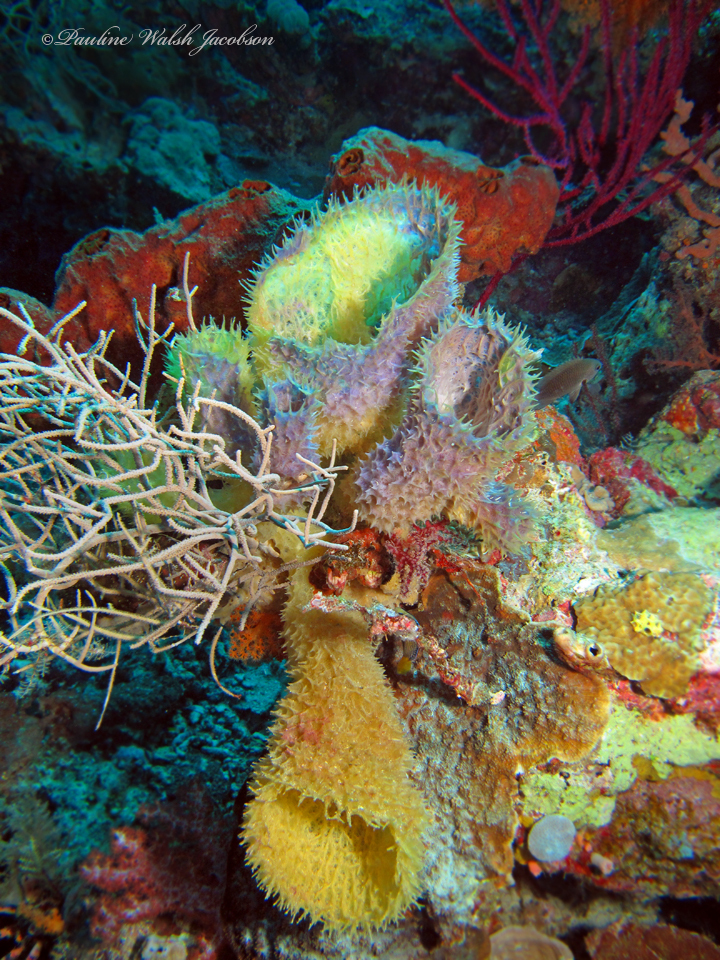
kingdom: Animalia
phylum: Porifera
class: Demospongiae
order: Haplosclerida
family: Callyspongiidae
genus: Callyspongia
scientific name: Callyspongia aerizusa
